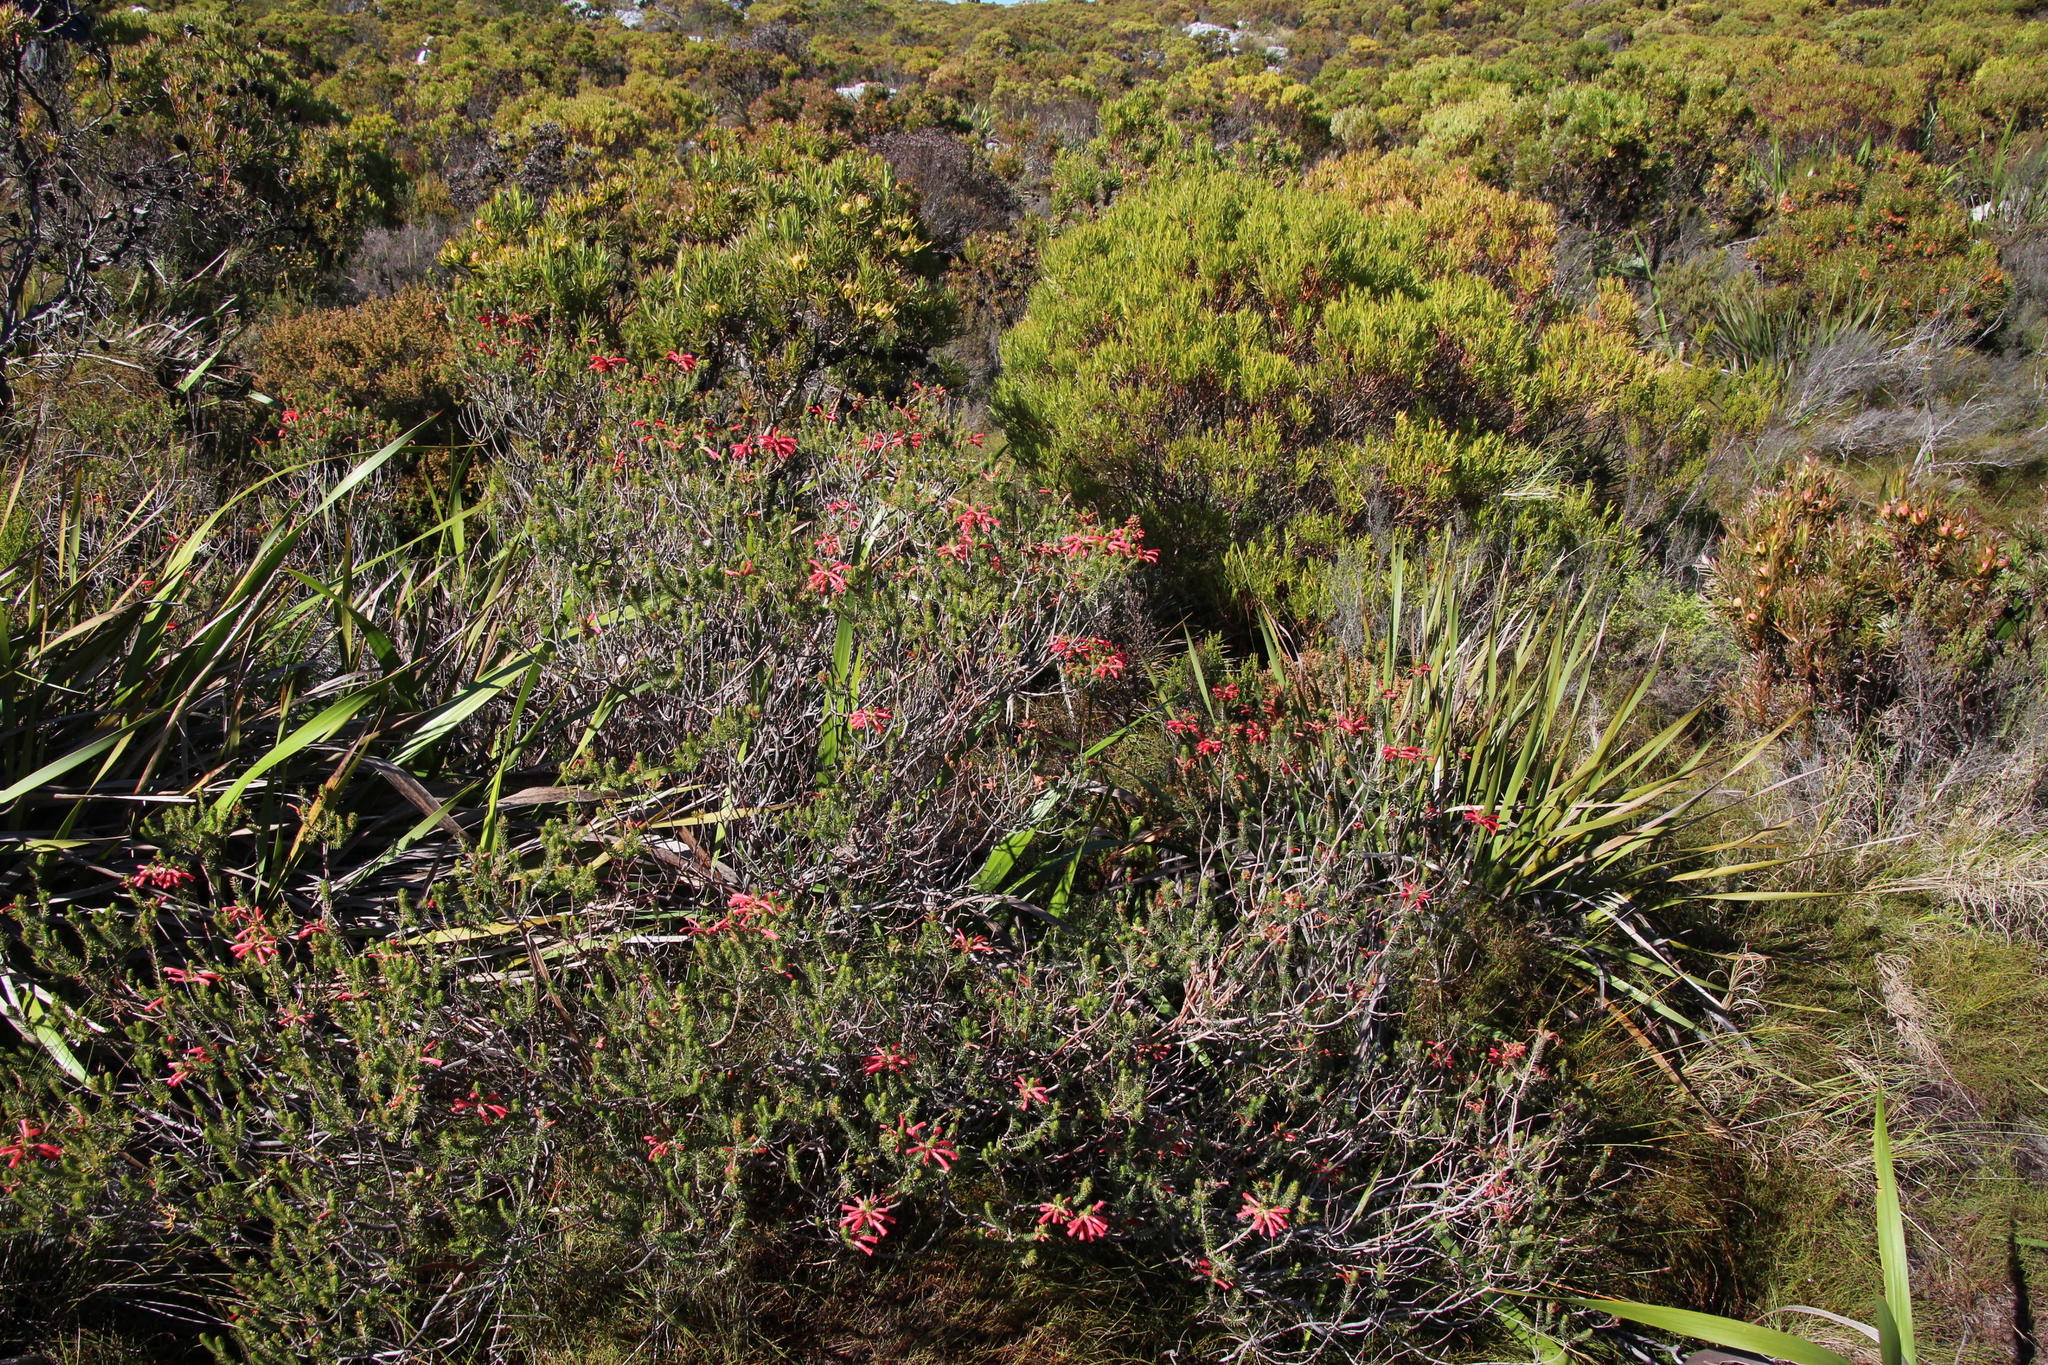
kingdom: Plantae
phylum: Tracheophyta
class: Magnoliopsida
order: Ericales
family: Ericaceae
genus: Erica
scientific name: Erica abietina
